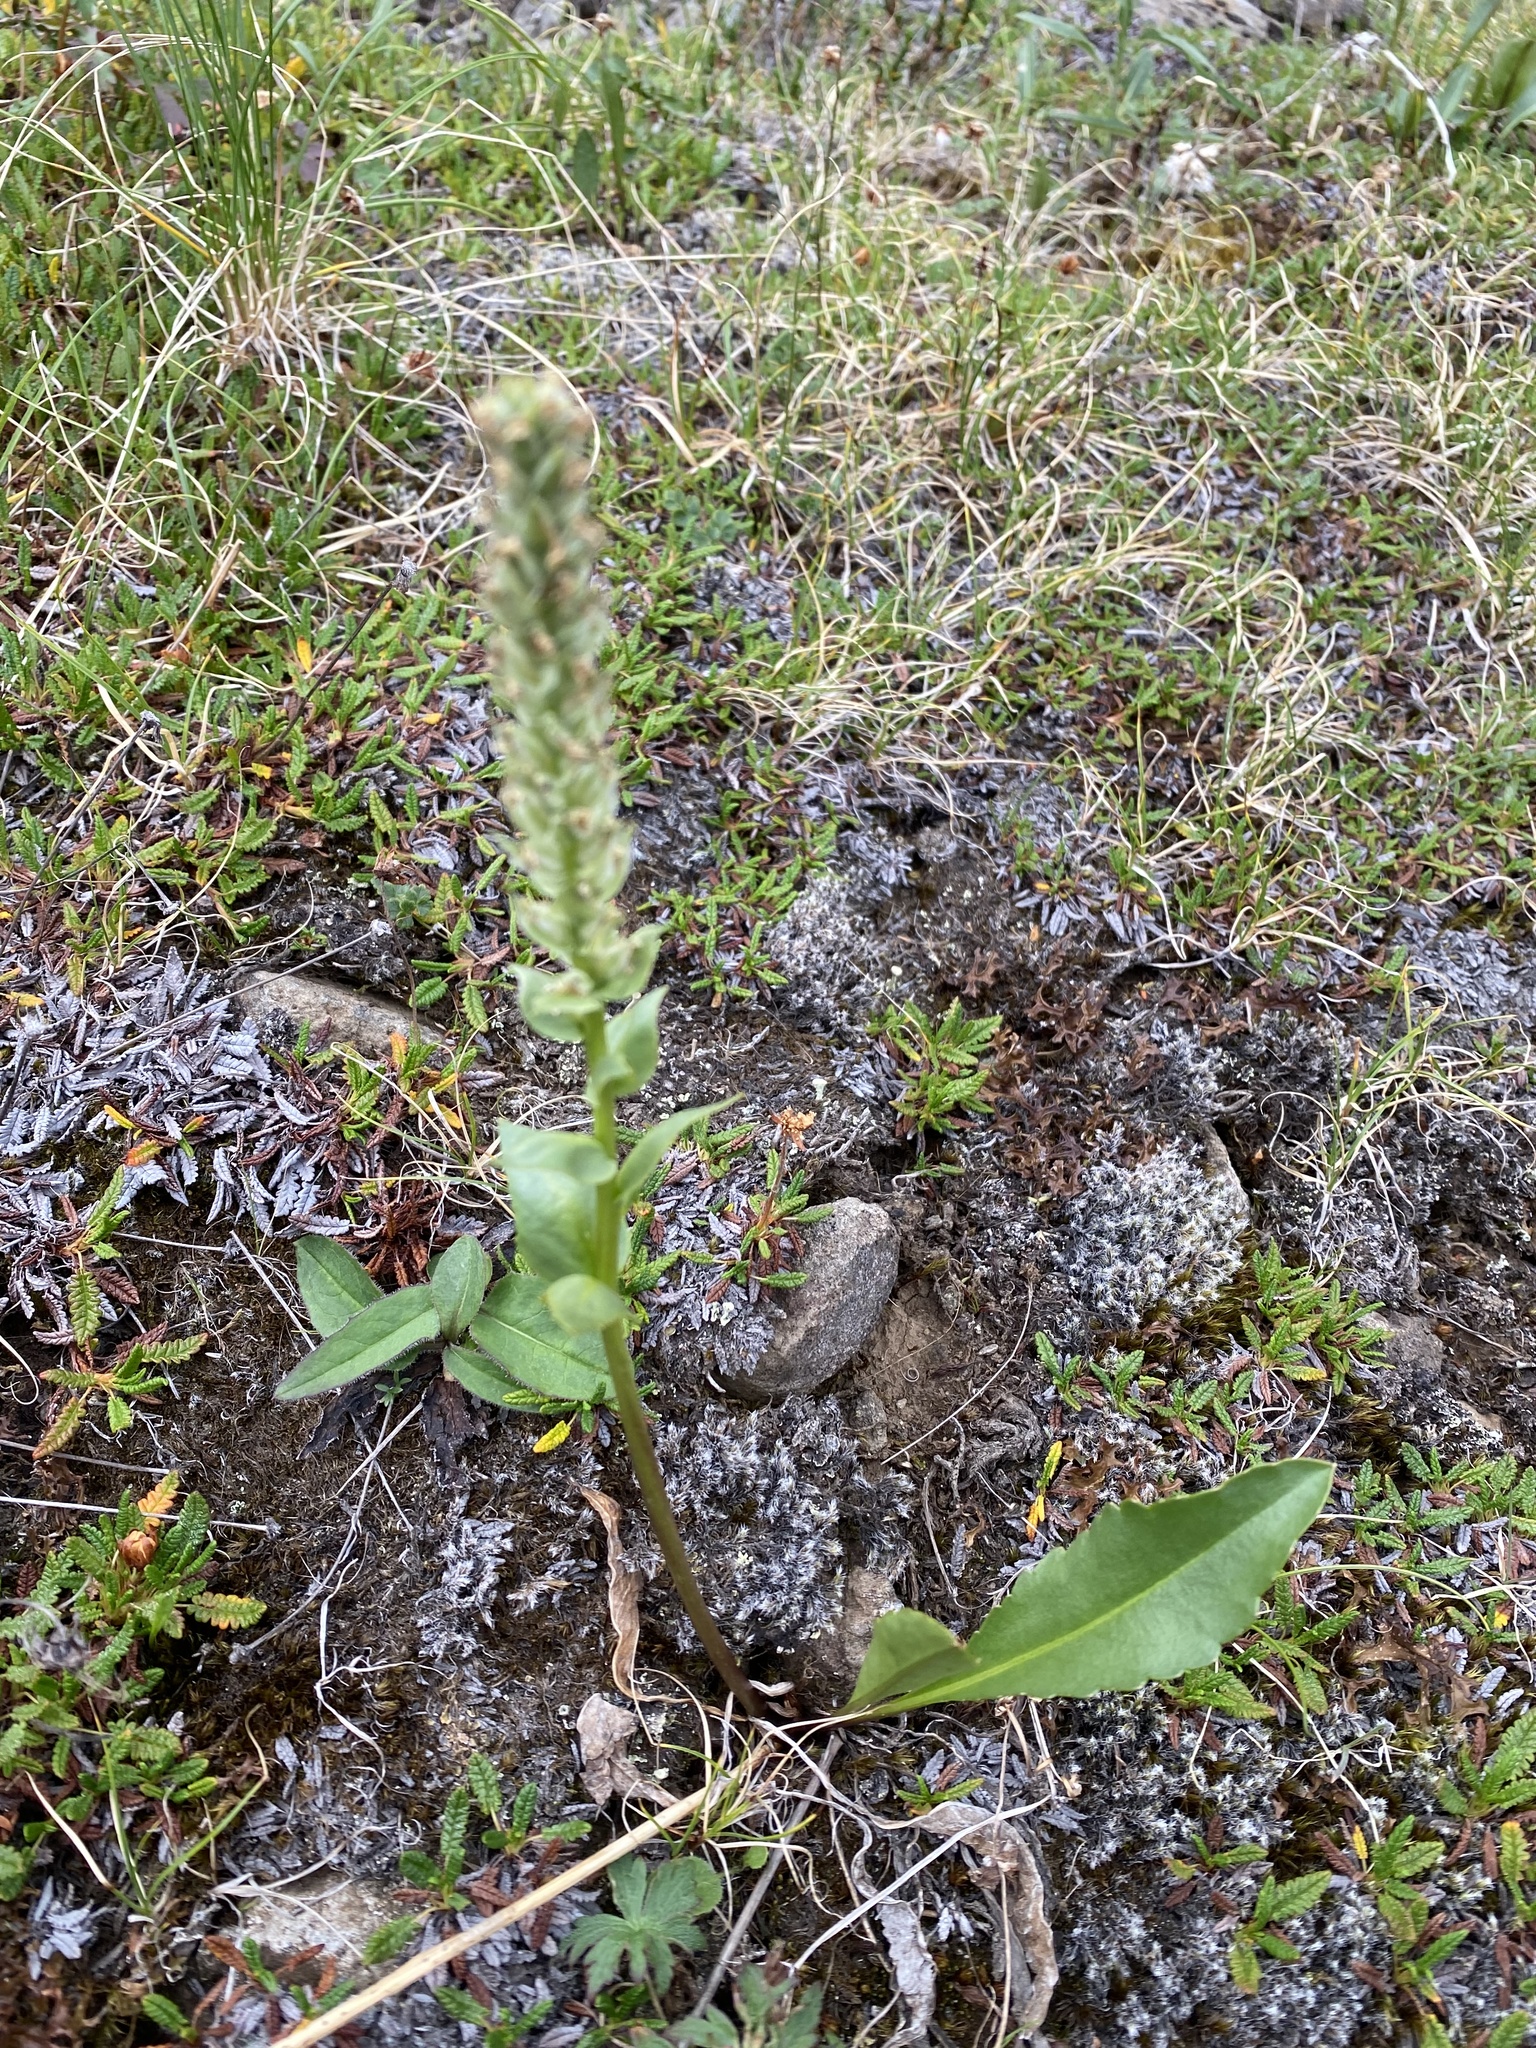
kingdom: Plantae
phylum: Tracheophyta
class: Magnoliopsida
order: Lamiales
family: Plantaginaceae
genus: Lagotis
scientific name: Lagotis glauca
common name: Glaucous weaselsnout
